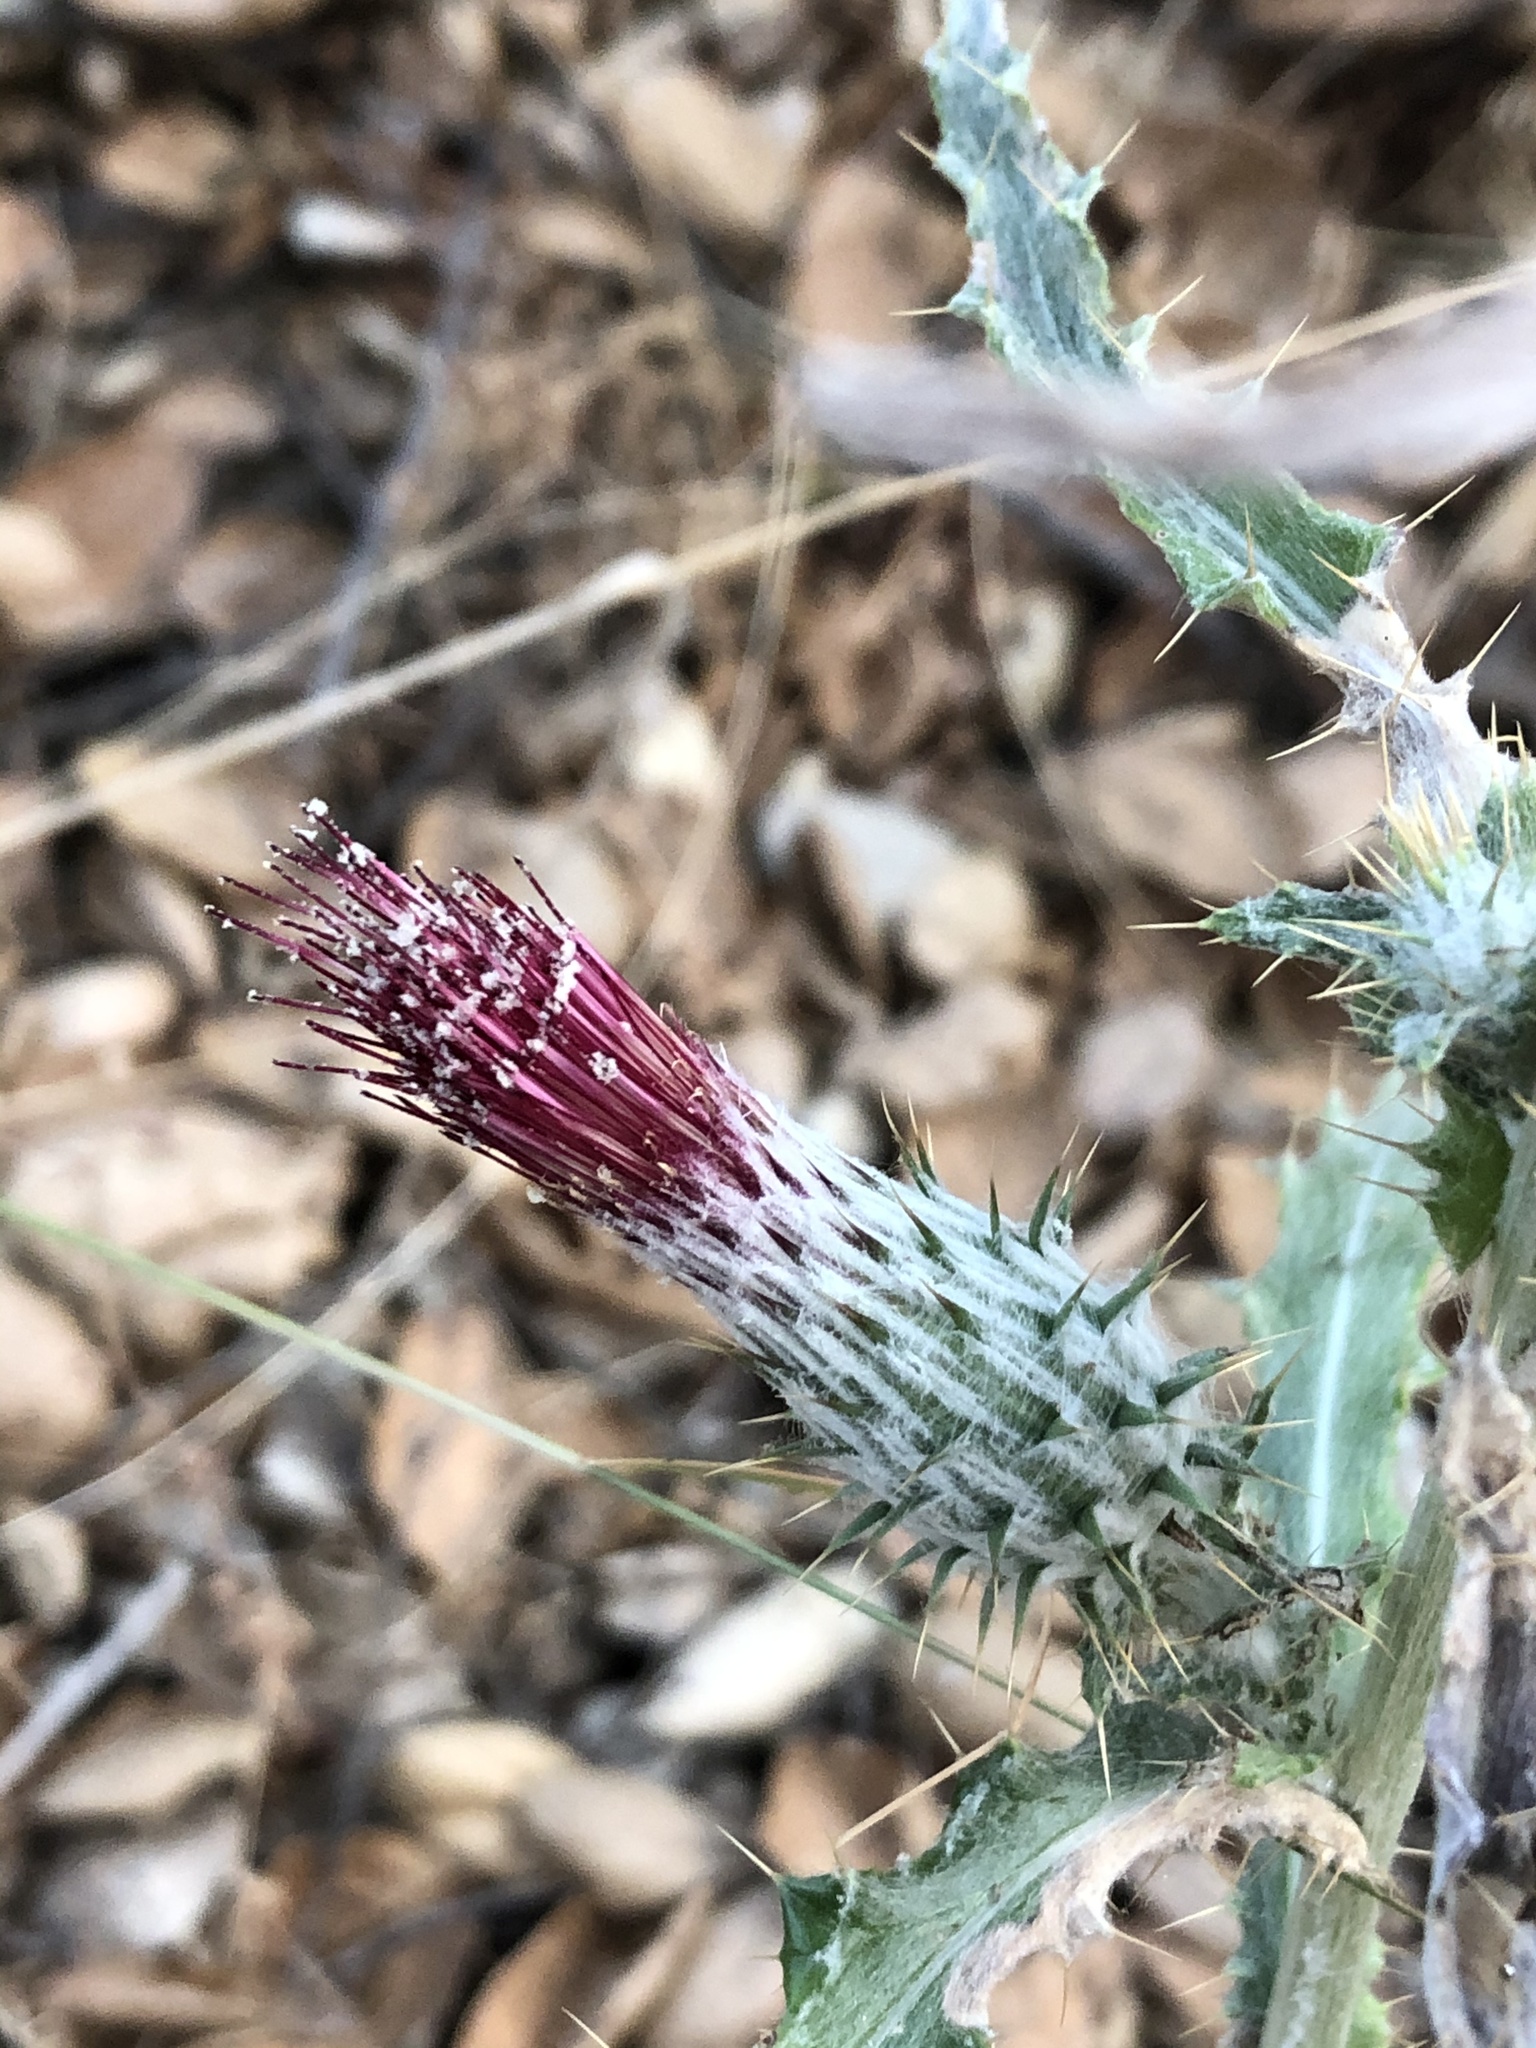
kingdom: Plantae
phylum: Tracheophyta
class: Magnoliopsida
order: Asterales
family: Asteraceae
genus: Cirsium
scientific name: Cirsium occidentale
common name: Western thistle
